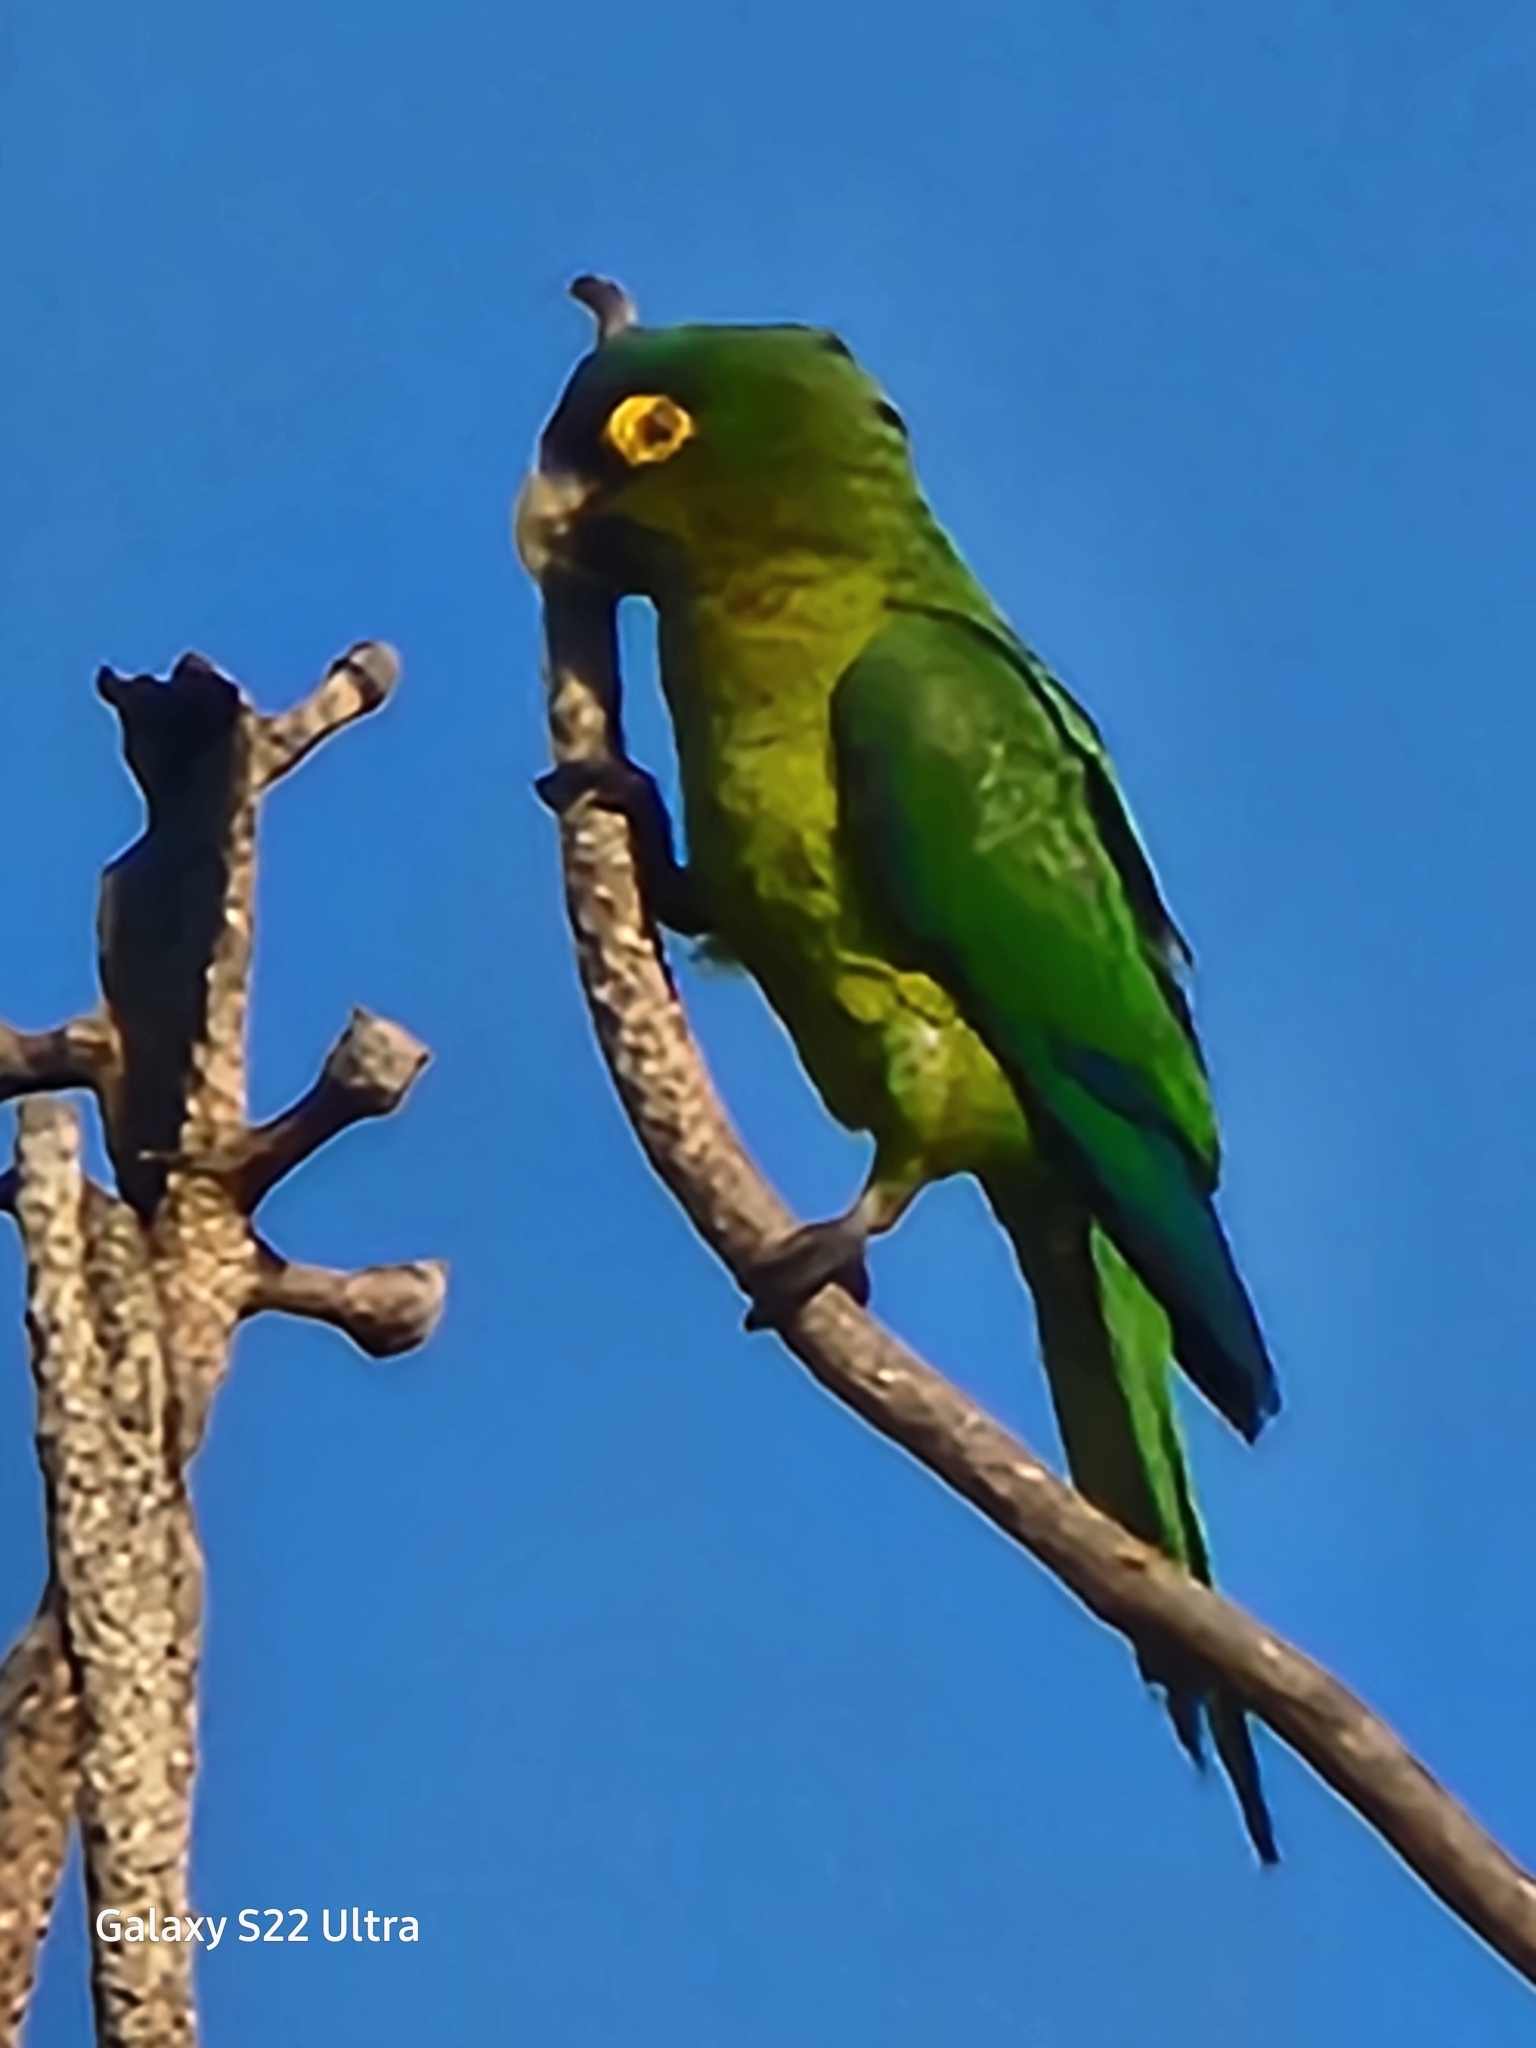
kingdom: Animalia
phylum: Chordata
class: Aves
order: Psittaciformes
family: Psittacidae
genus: Aratinga
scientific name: Aratinga canicularis
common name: Orange-fronted parakeet
